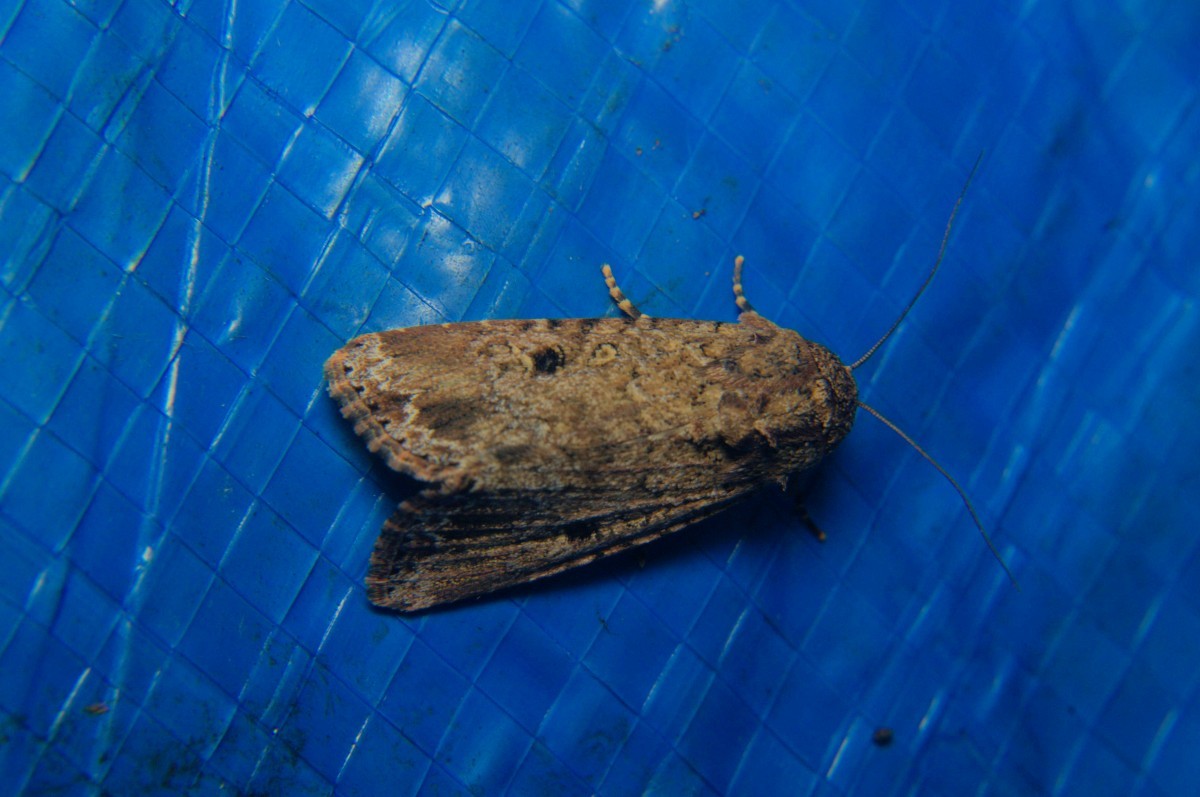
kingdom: Animalia
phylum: Arthropoda
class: Insecta
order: Lepidoptera
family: Noctuidae
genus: Spodoptera
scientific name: Spodoptera mauritia
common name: Lawn armyworm
